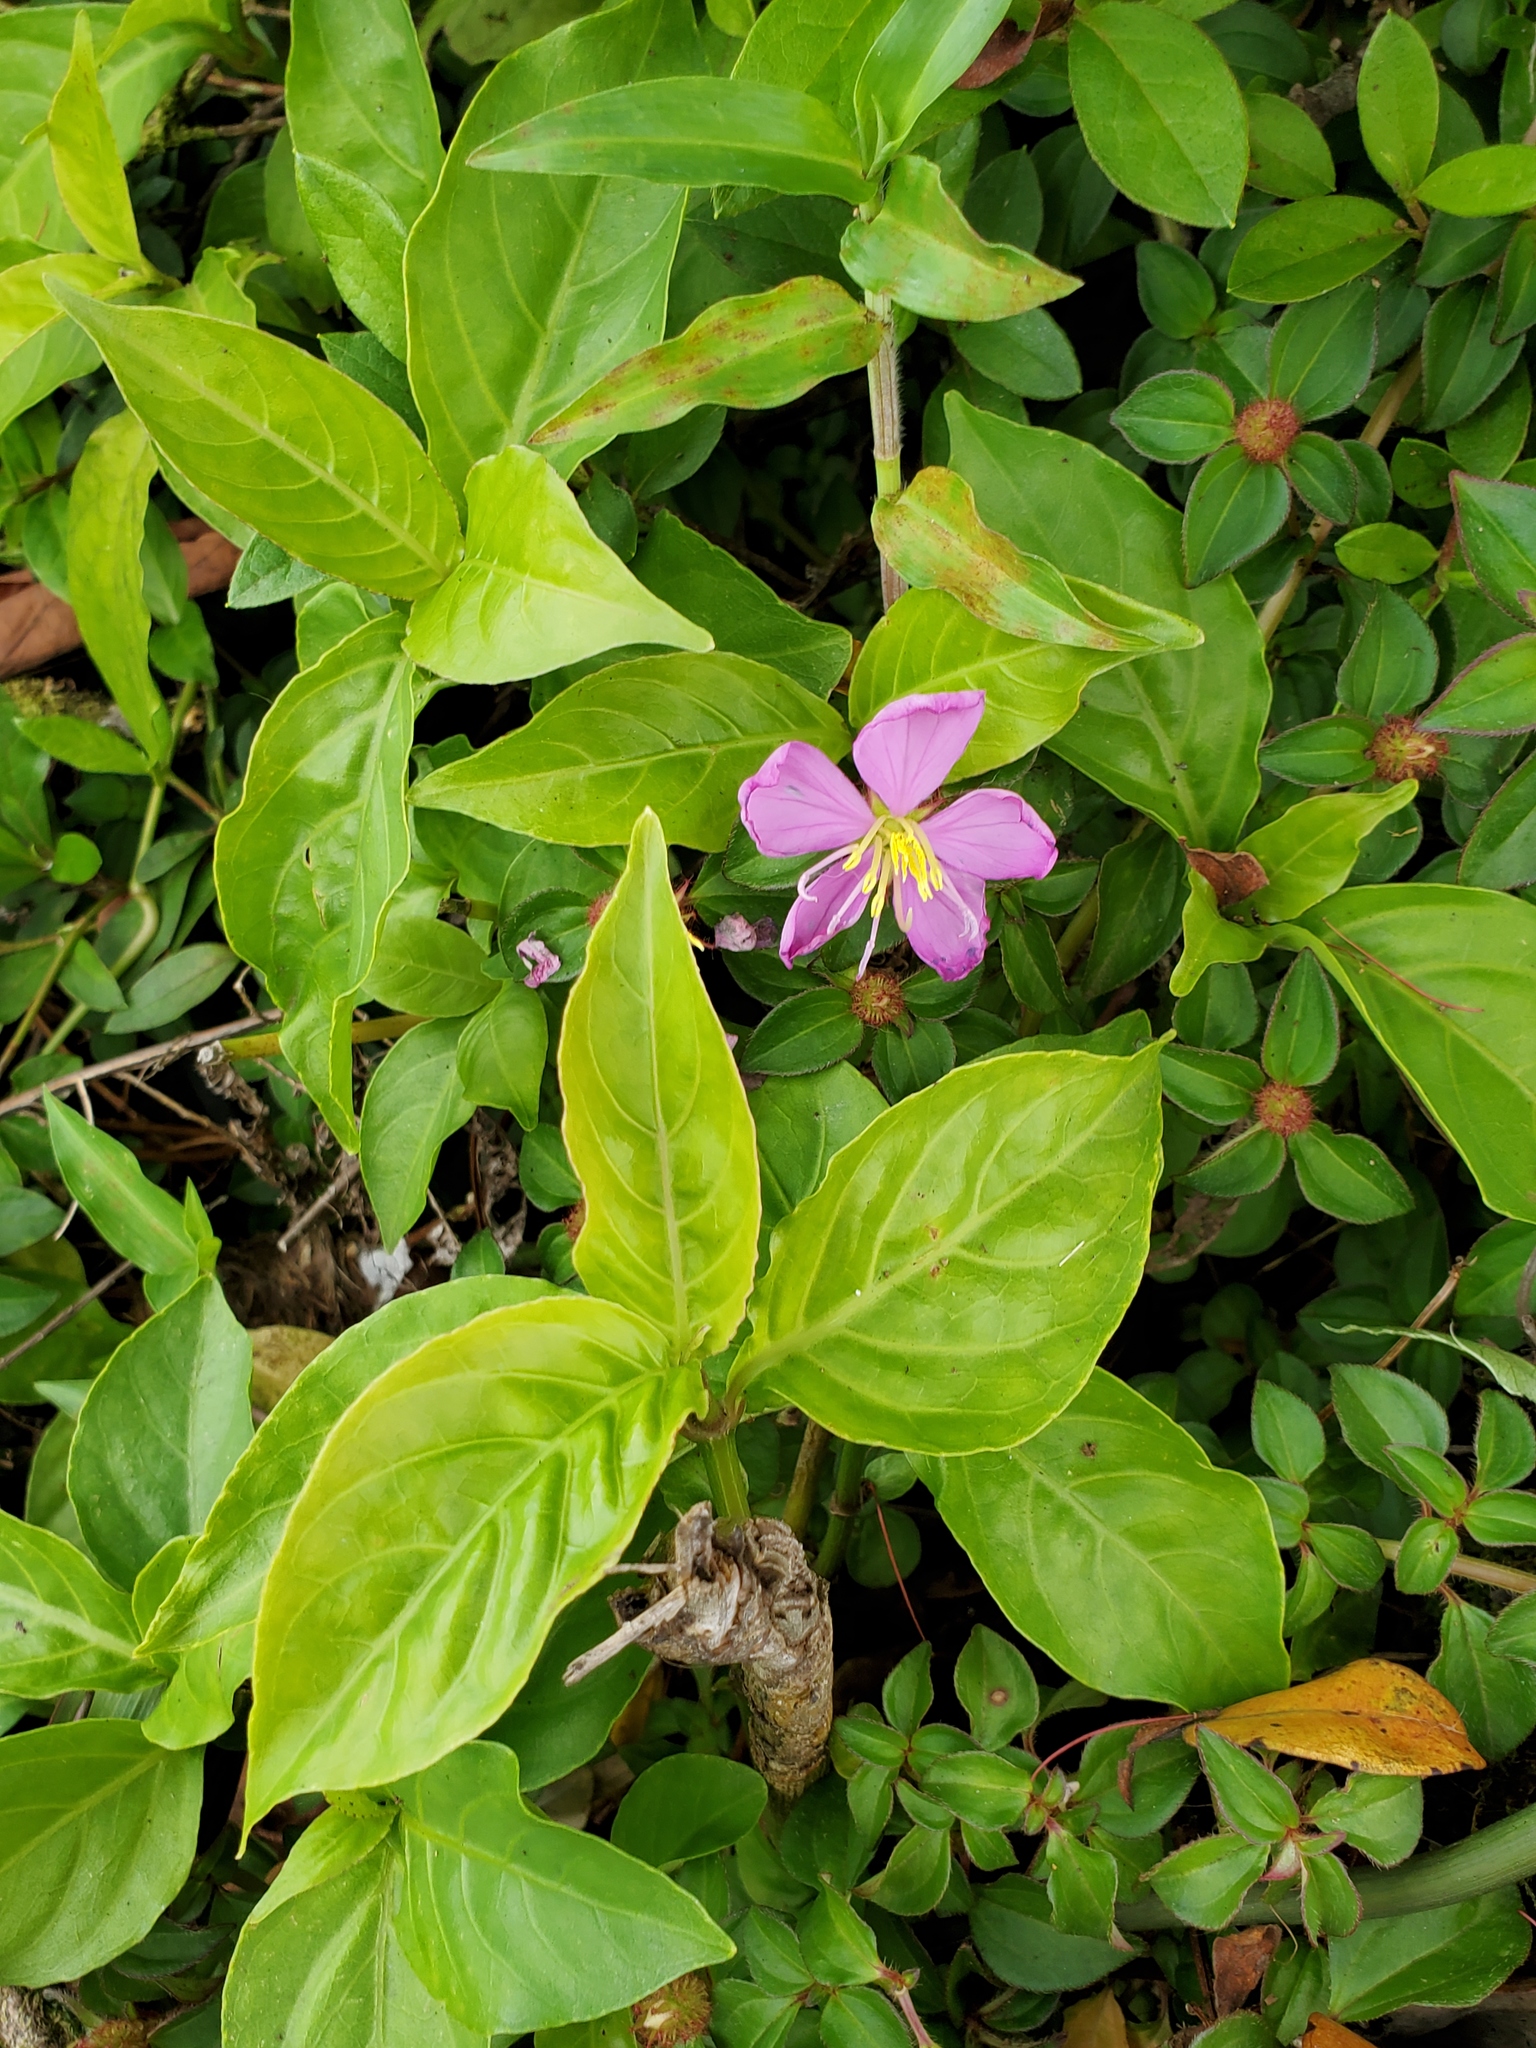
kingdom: Plantae
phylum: Tracheophyta
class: Magnoliopsida
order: Myrtales
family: Melastomataceae
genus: Heterotis
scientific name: Heterotis rotundifolia
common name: Pinklady
